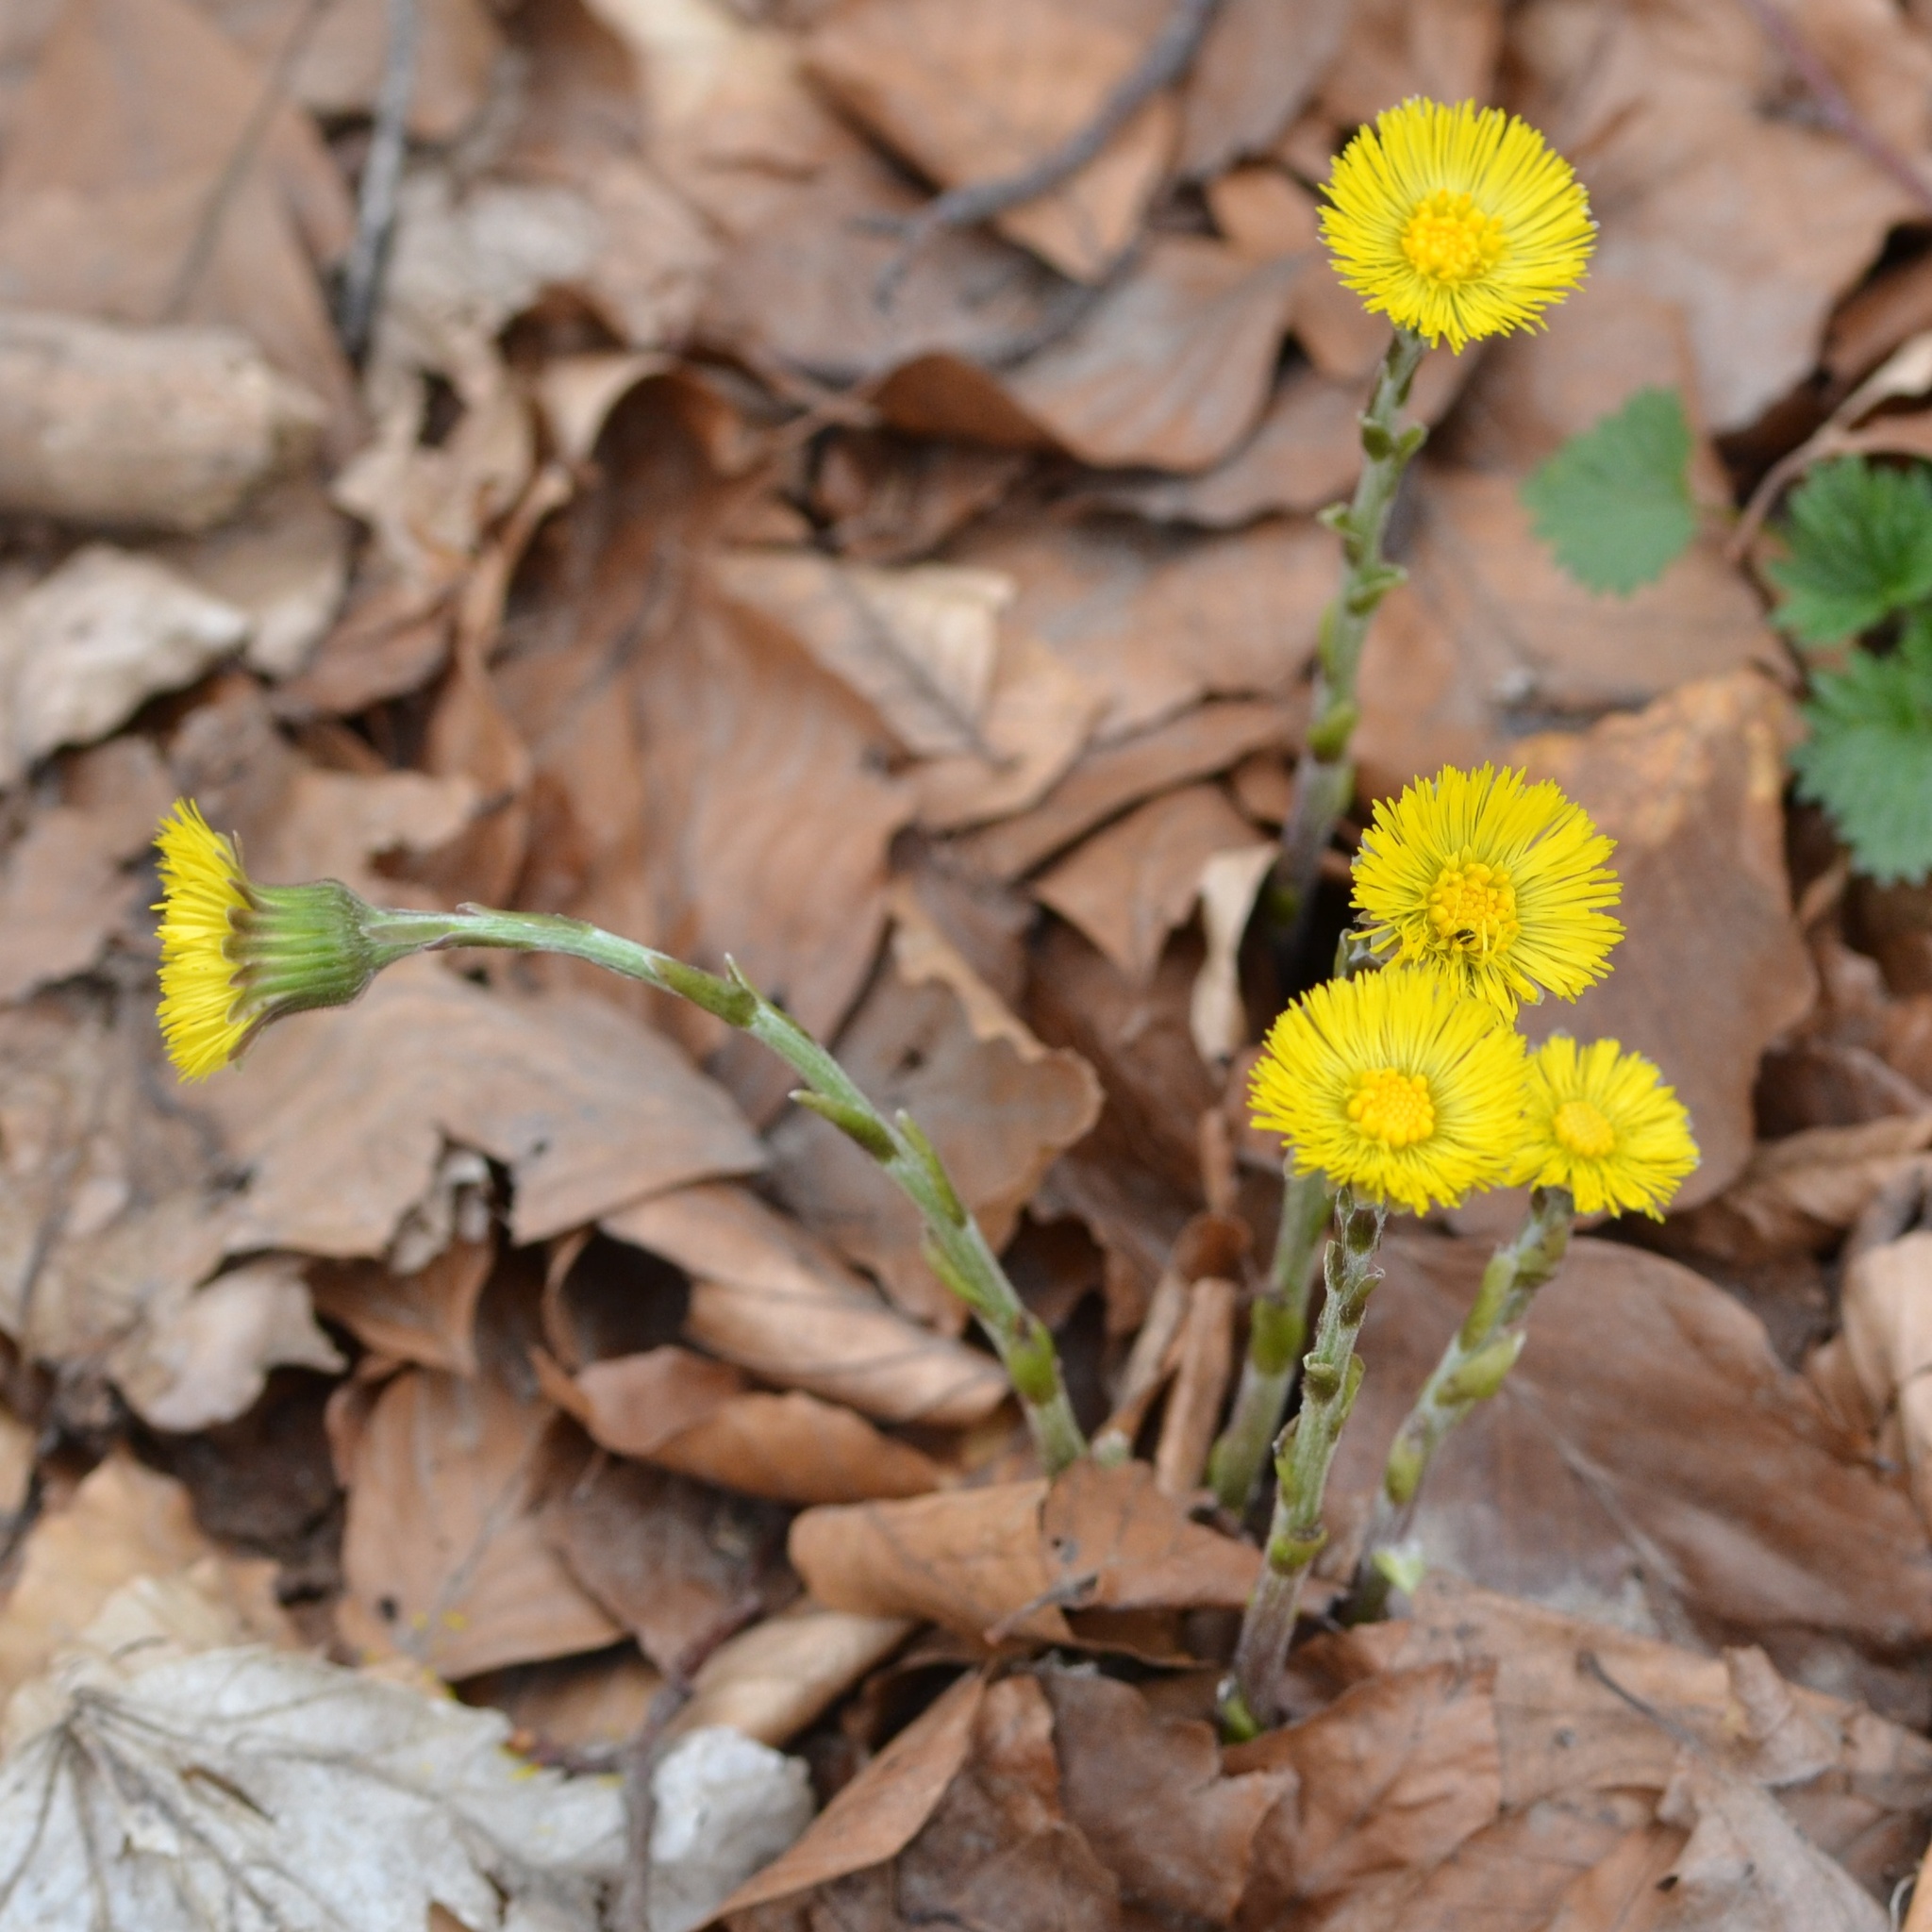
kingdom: Plantae
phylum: Tracheophyta
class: Magnoliopsida
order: Asterales
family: Asteraceae
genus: Tussilago
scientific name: Tussilago farfara
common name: Coltsfoot
